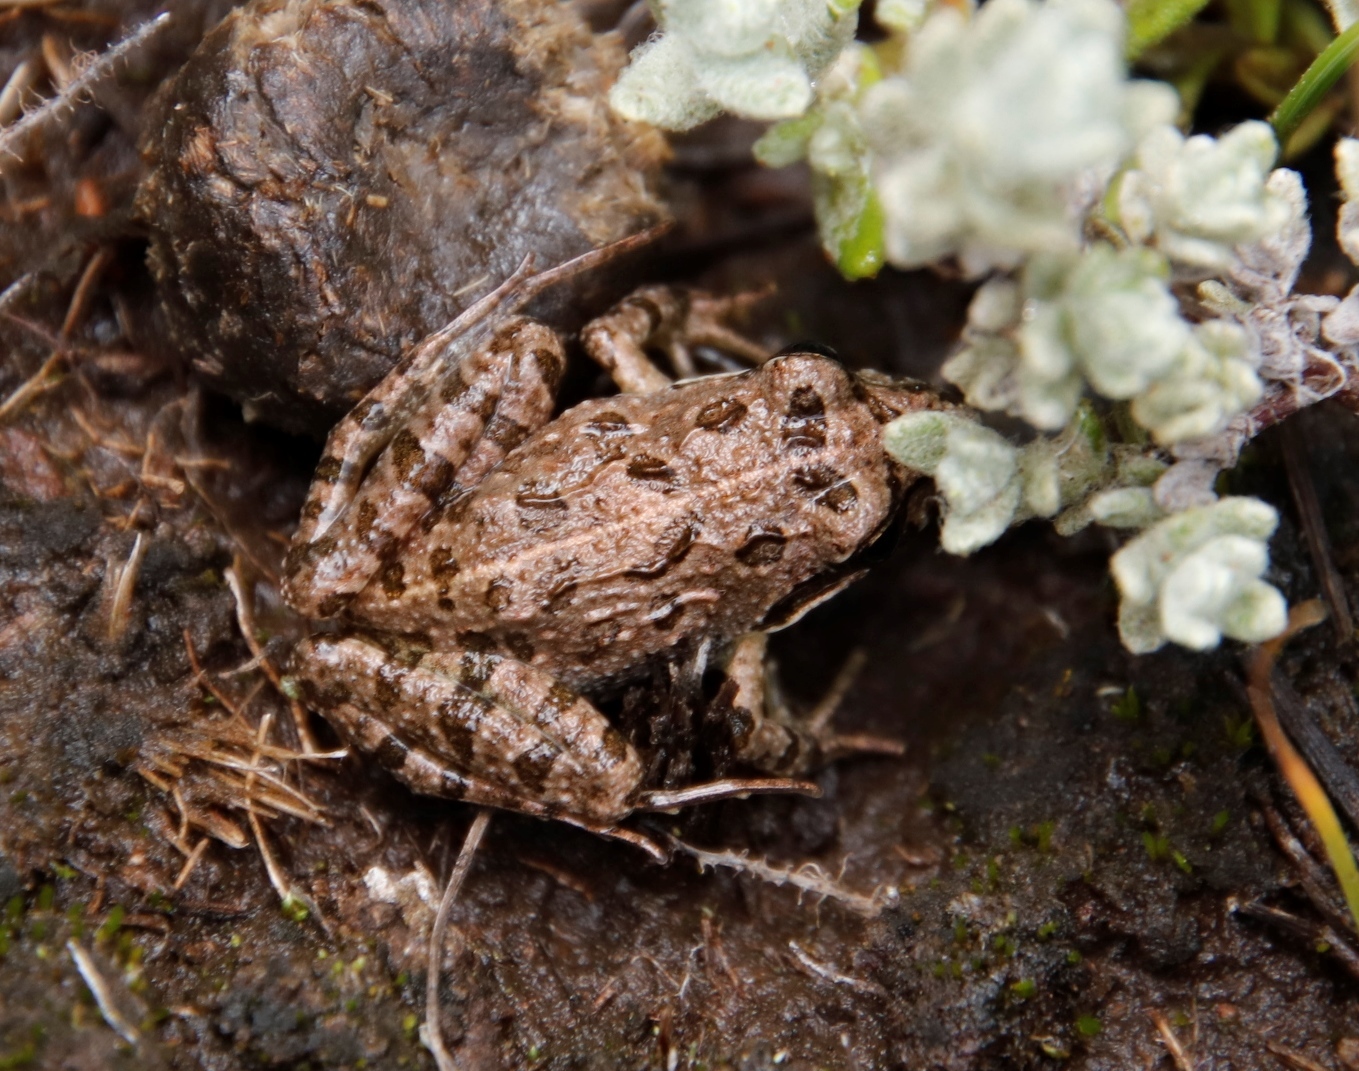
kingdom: Animalia
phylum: Chordata
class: Amphibia
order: Anura
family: Pyxicephalidae
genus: Strongylopus
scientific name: Strongylopus grayii
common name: Gray's stream frog
